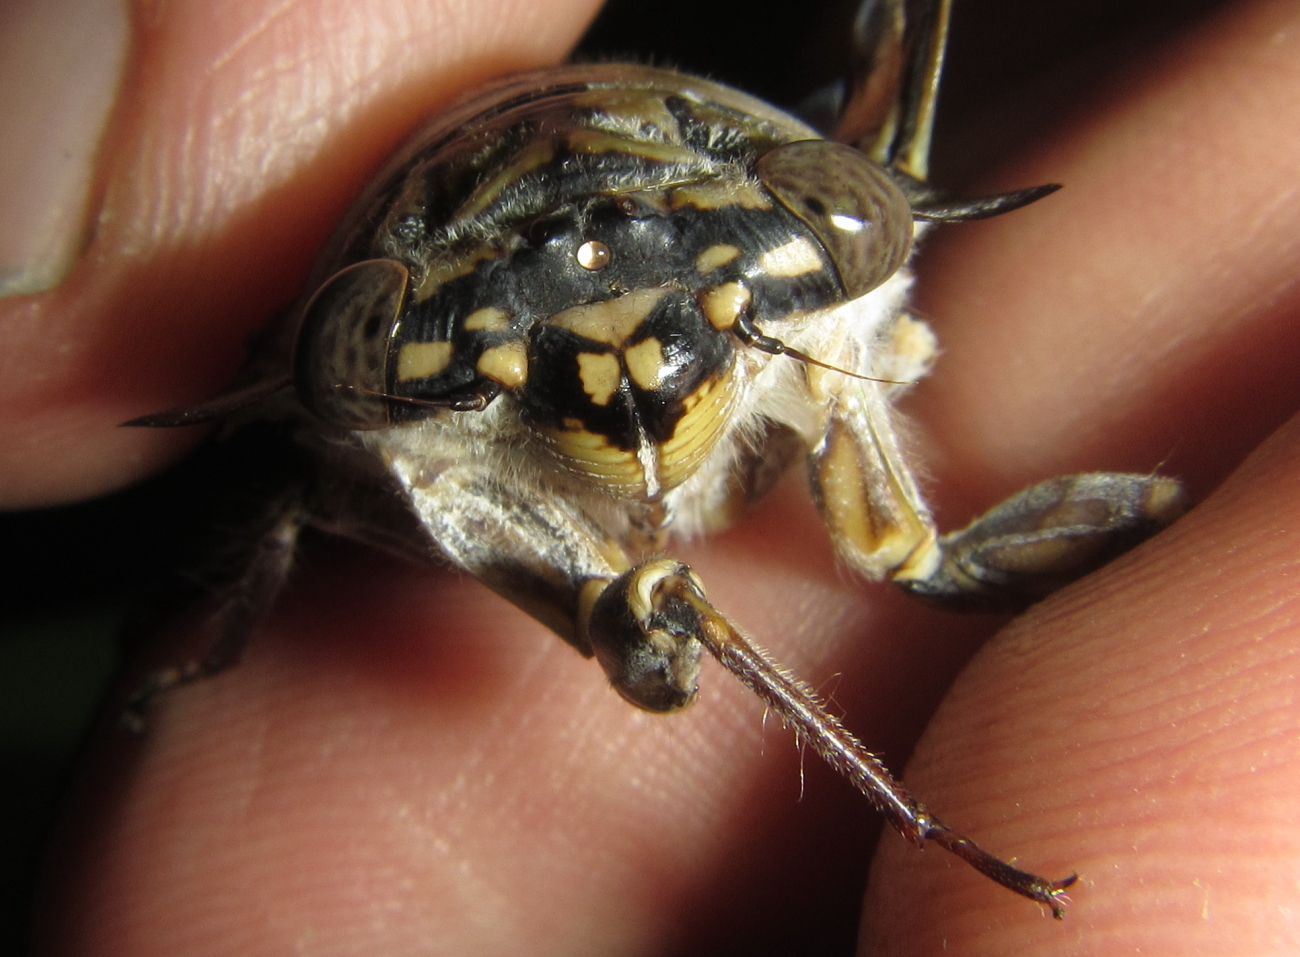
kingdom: Animalia
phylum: Arthropoda
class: Insecta
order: Hemiptera
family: Cicadidae
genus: Oxypleura
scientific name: Oxypleura quadraticollis
